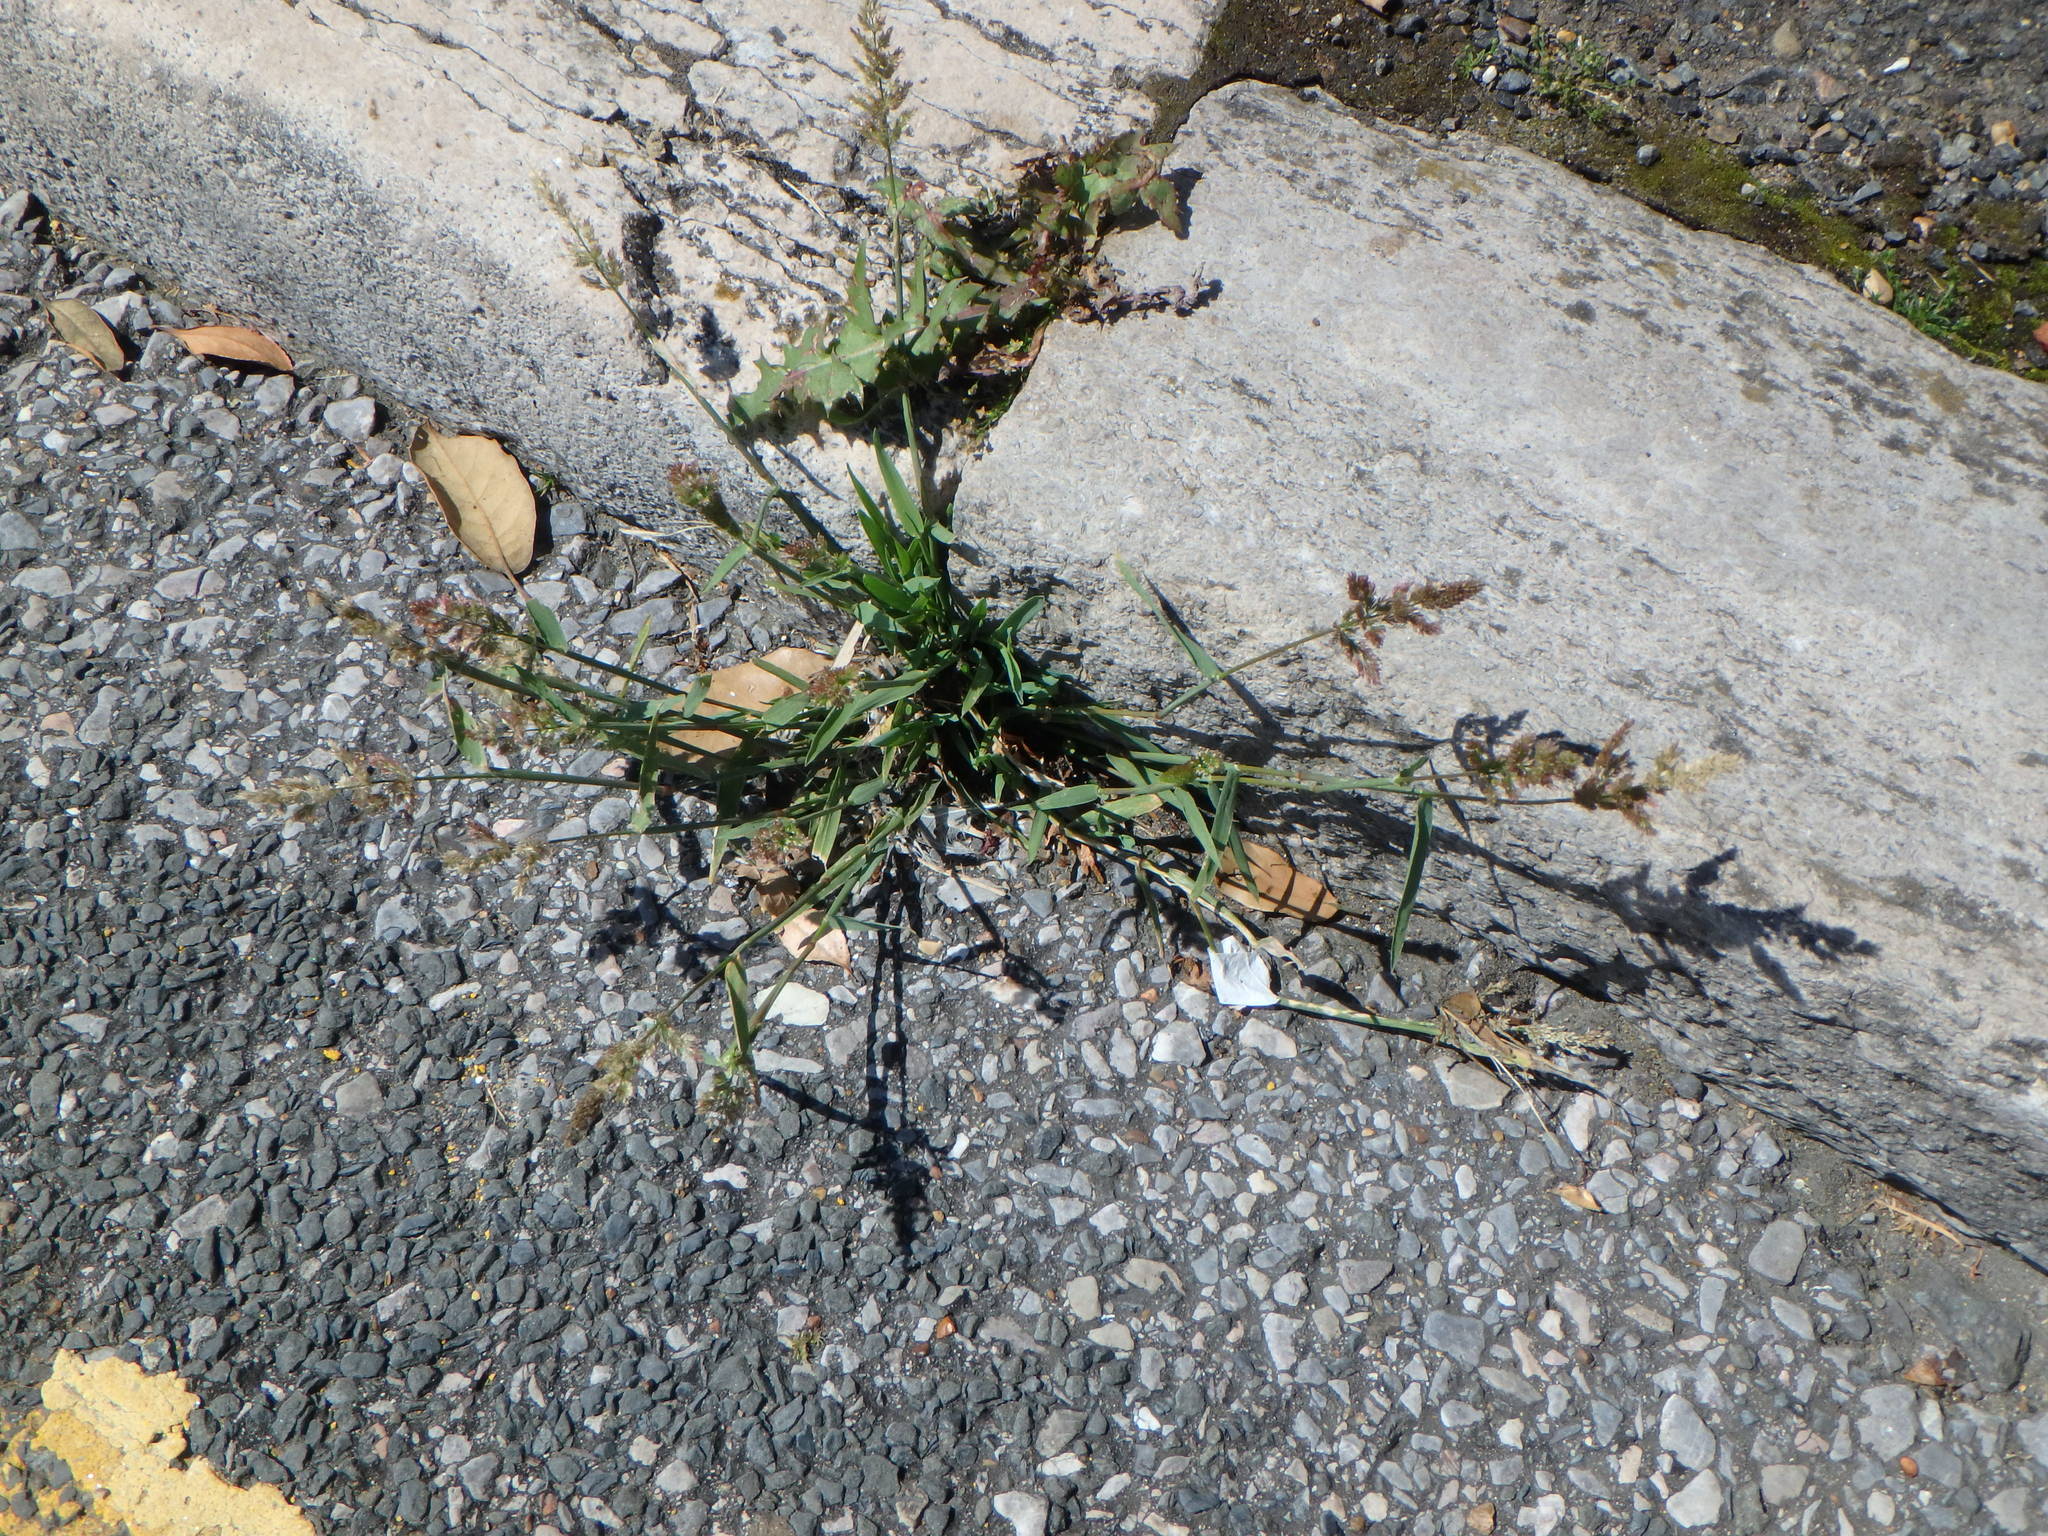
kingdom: Plantae
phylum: Tracheophyta
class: Liliopsida
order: Poales
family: Poaceae
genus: Polypogon
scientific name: Polypogon viridis
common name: Water bent
